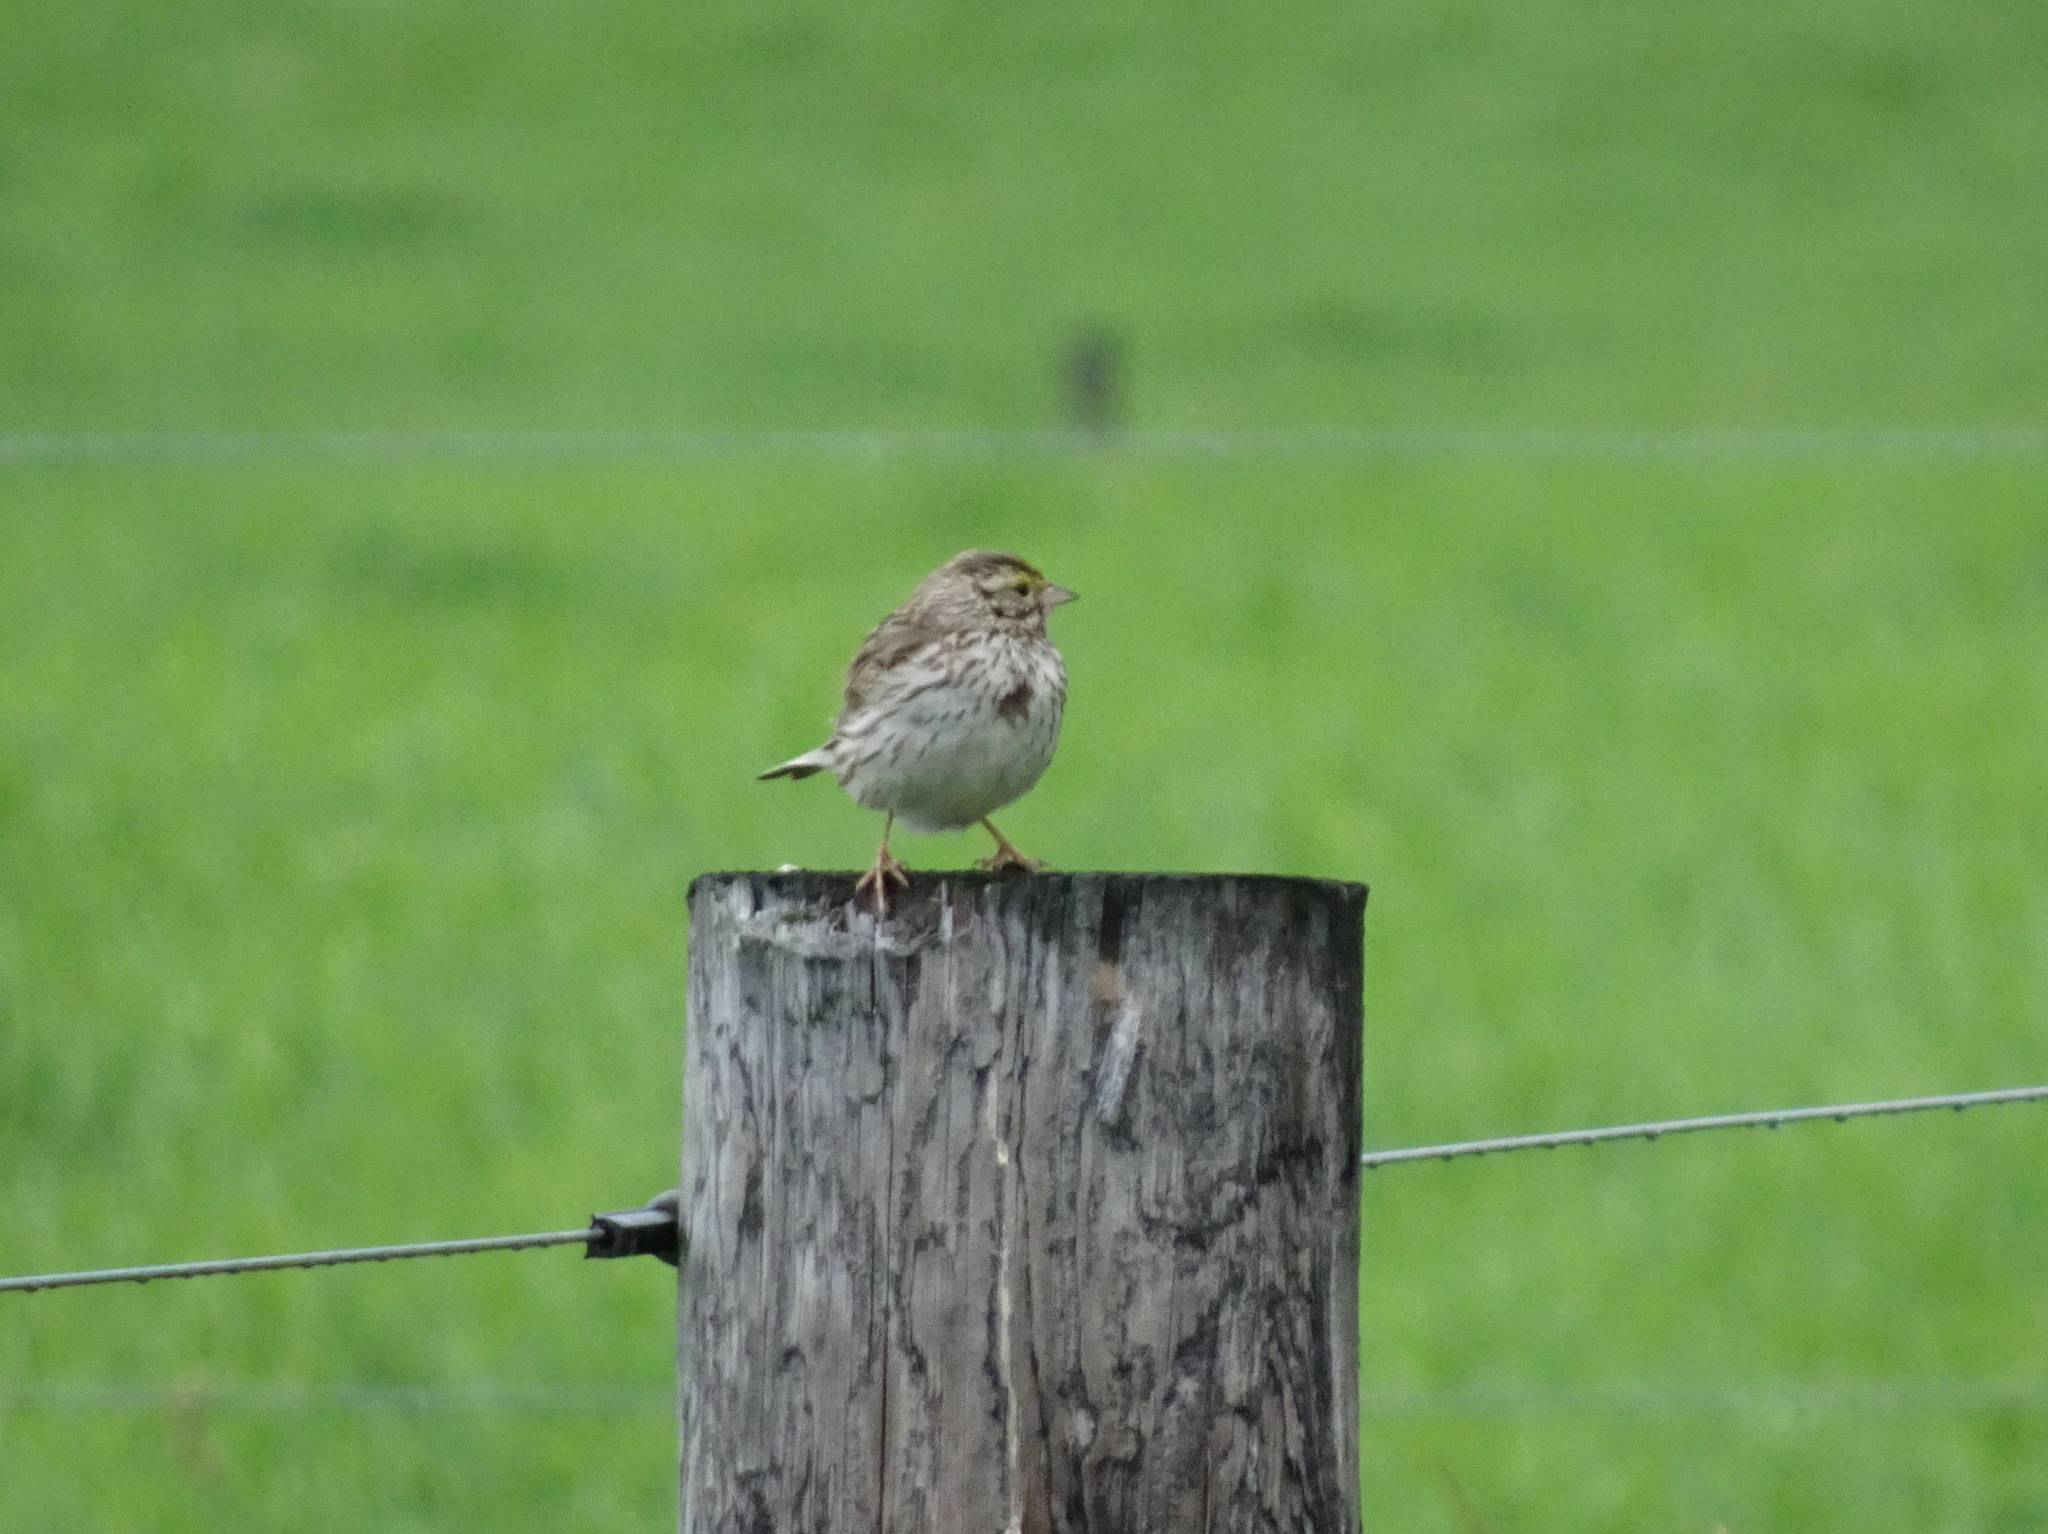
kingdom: Animalia
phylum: Chordata
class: Aves
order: Passeriformes
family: Passerellidae
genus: Passerculus
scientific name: Passerculus sandwichensis
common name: Savannah sparrow
